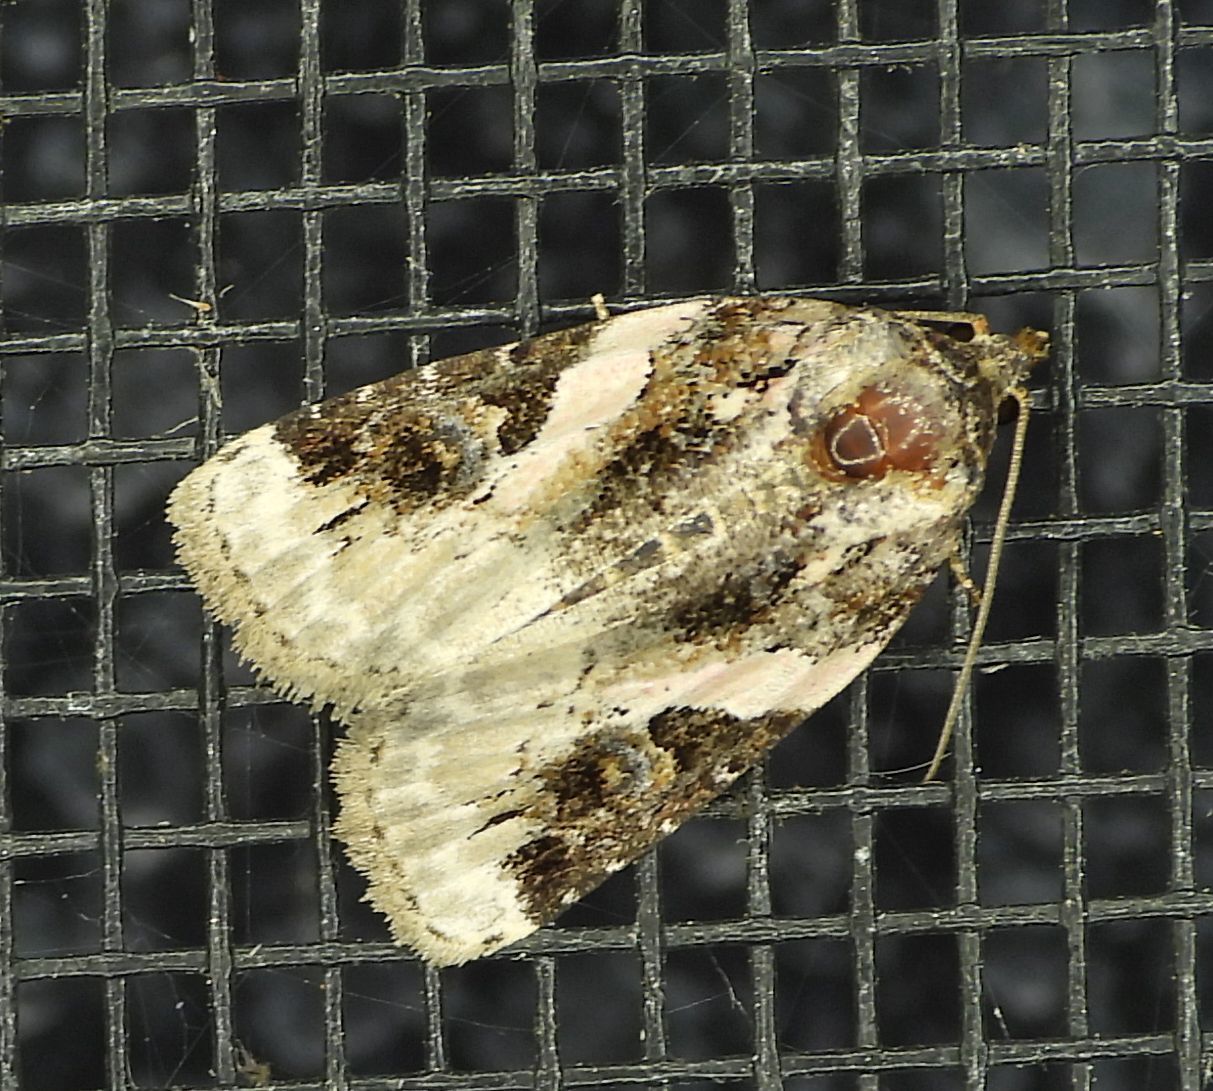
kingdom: Animalia
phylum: Arthropoda
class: Insecta
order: Lepidoptera
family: Noctuidae
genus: Pseudeustrotia
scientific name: Pseudeustrotia carneola
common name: Pink-barred lithacodia moth
